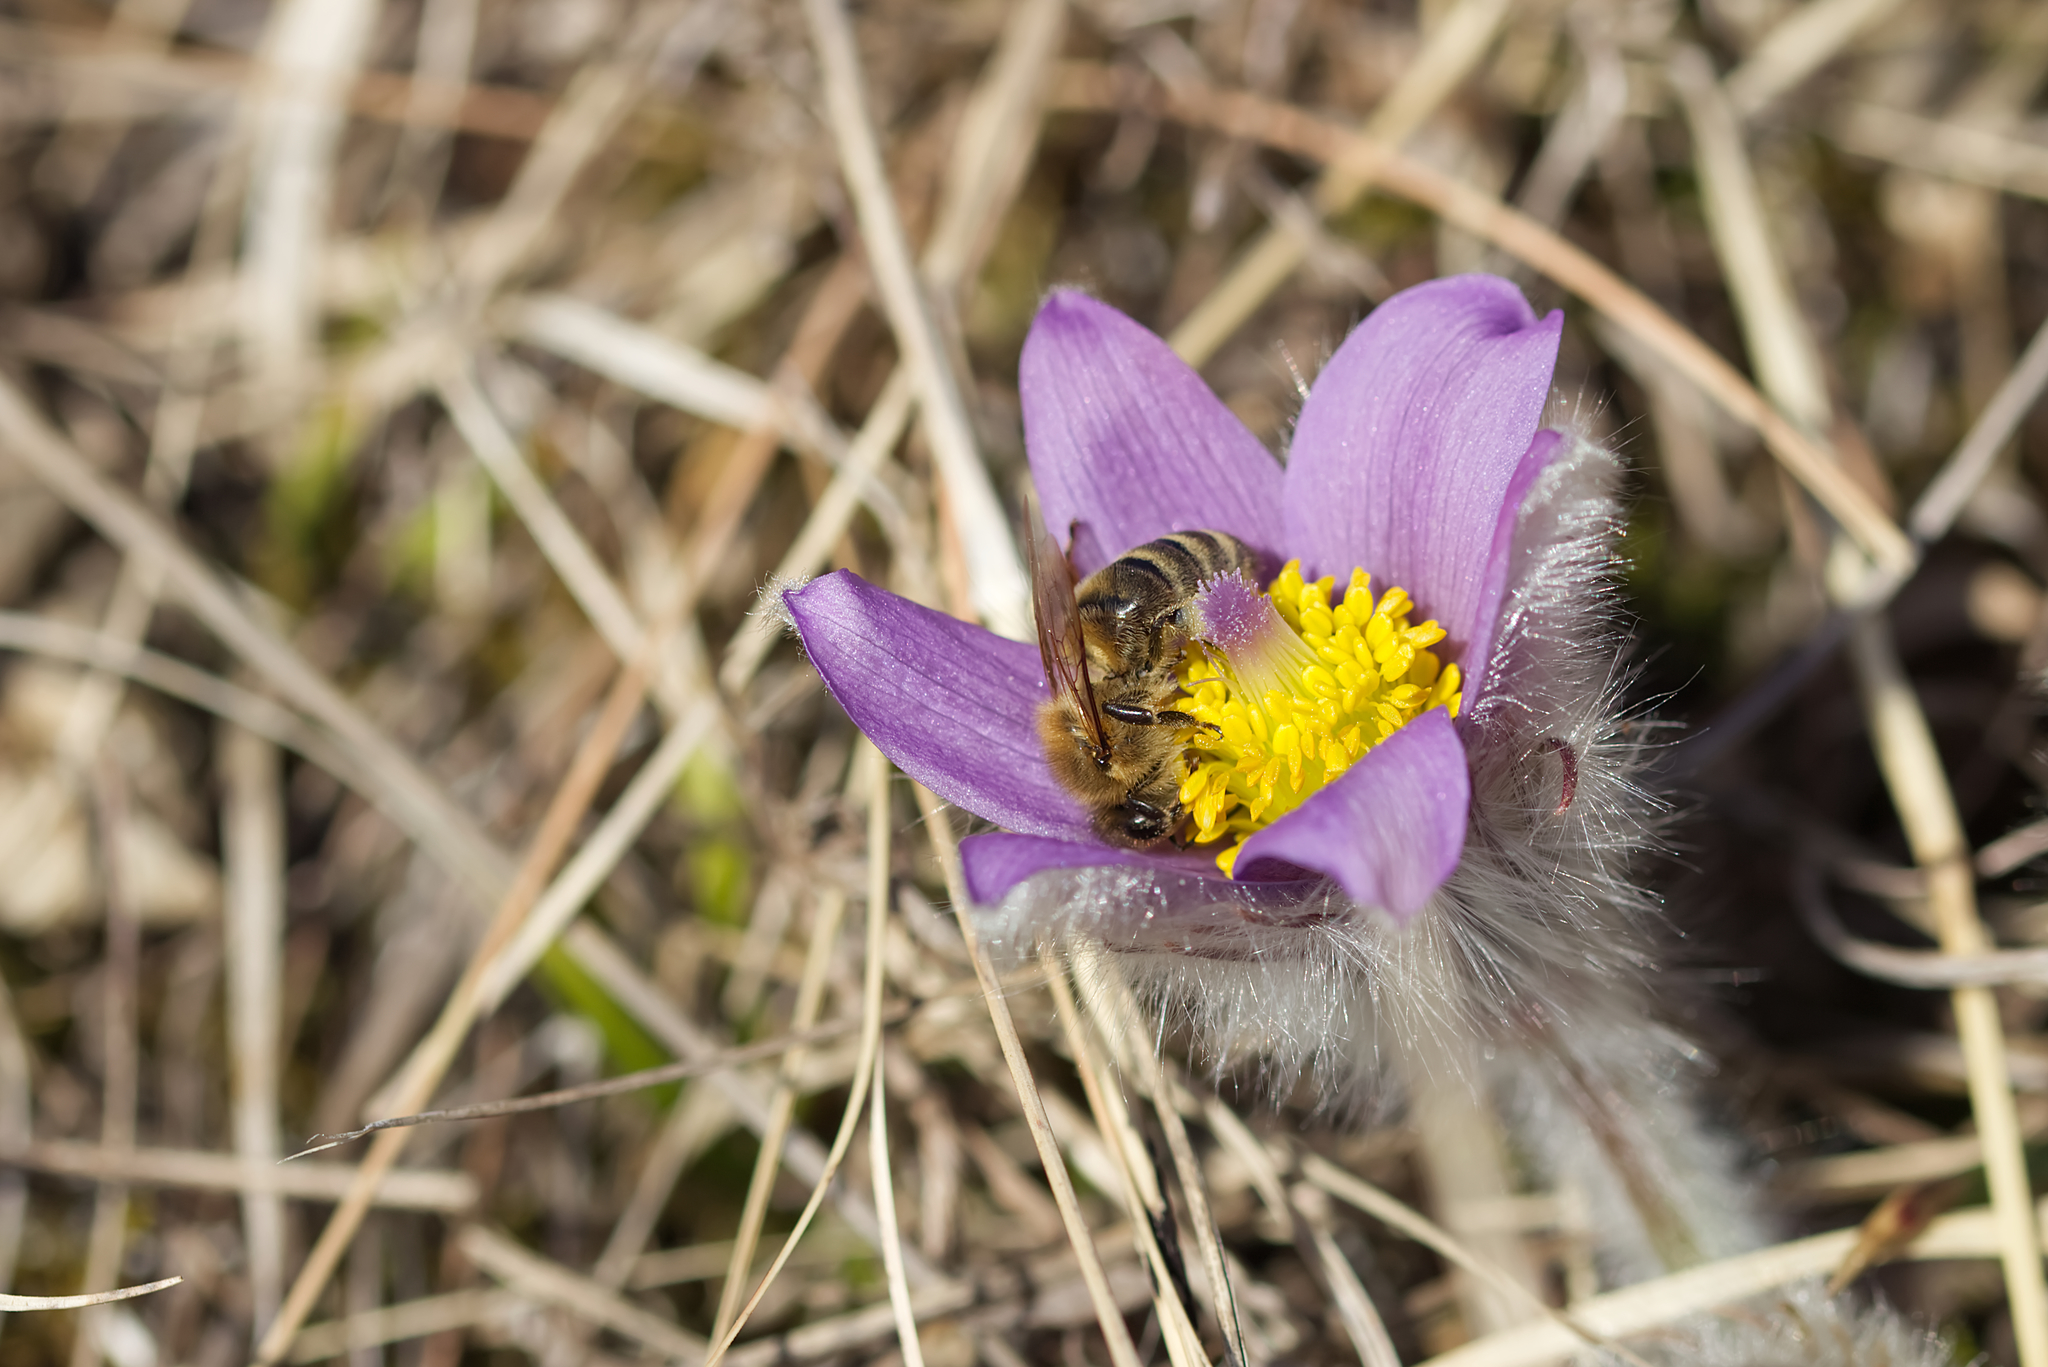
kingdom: Plantae
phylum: Tracheophyta
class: Magnoliopsida
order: Ranunculales
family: Ranunculaceae
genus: Pulsatilla
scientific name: Pulsatilla grandis
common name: Greater pasque flower
